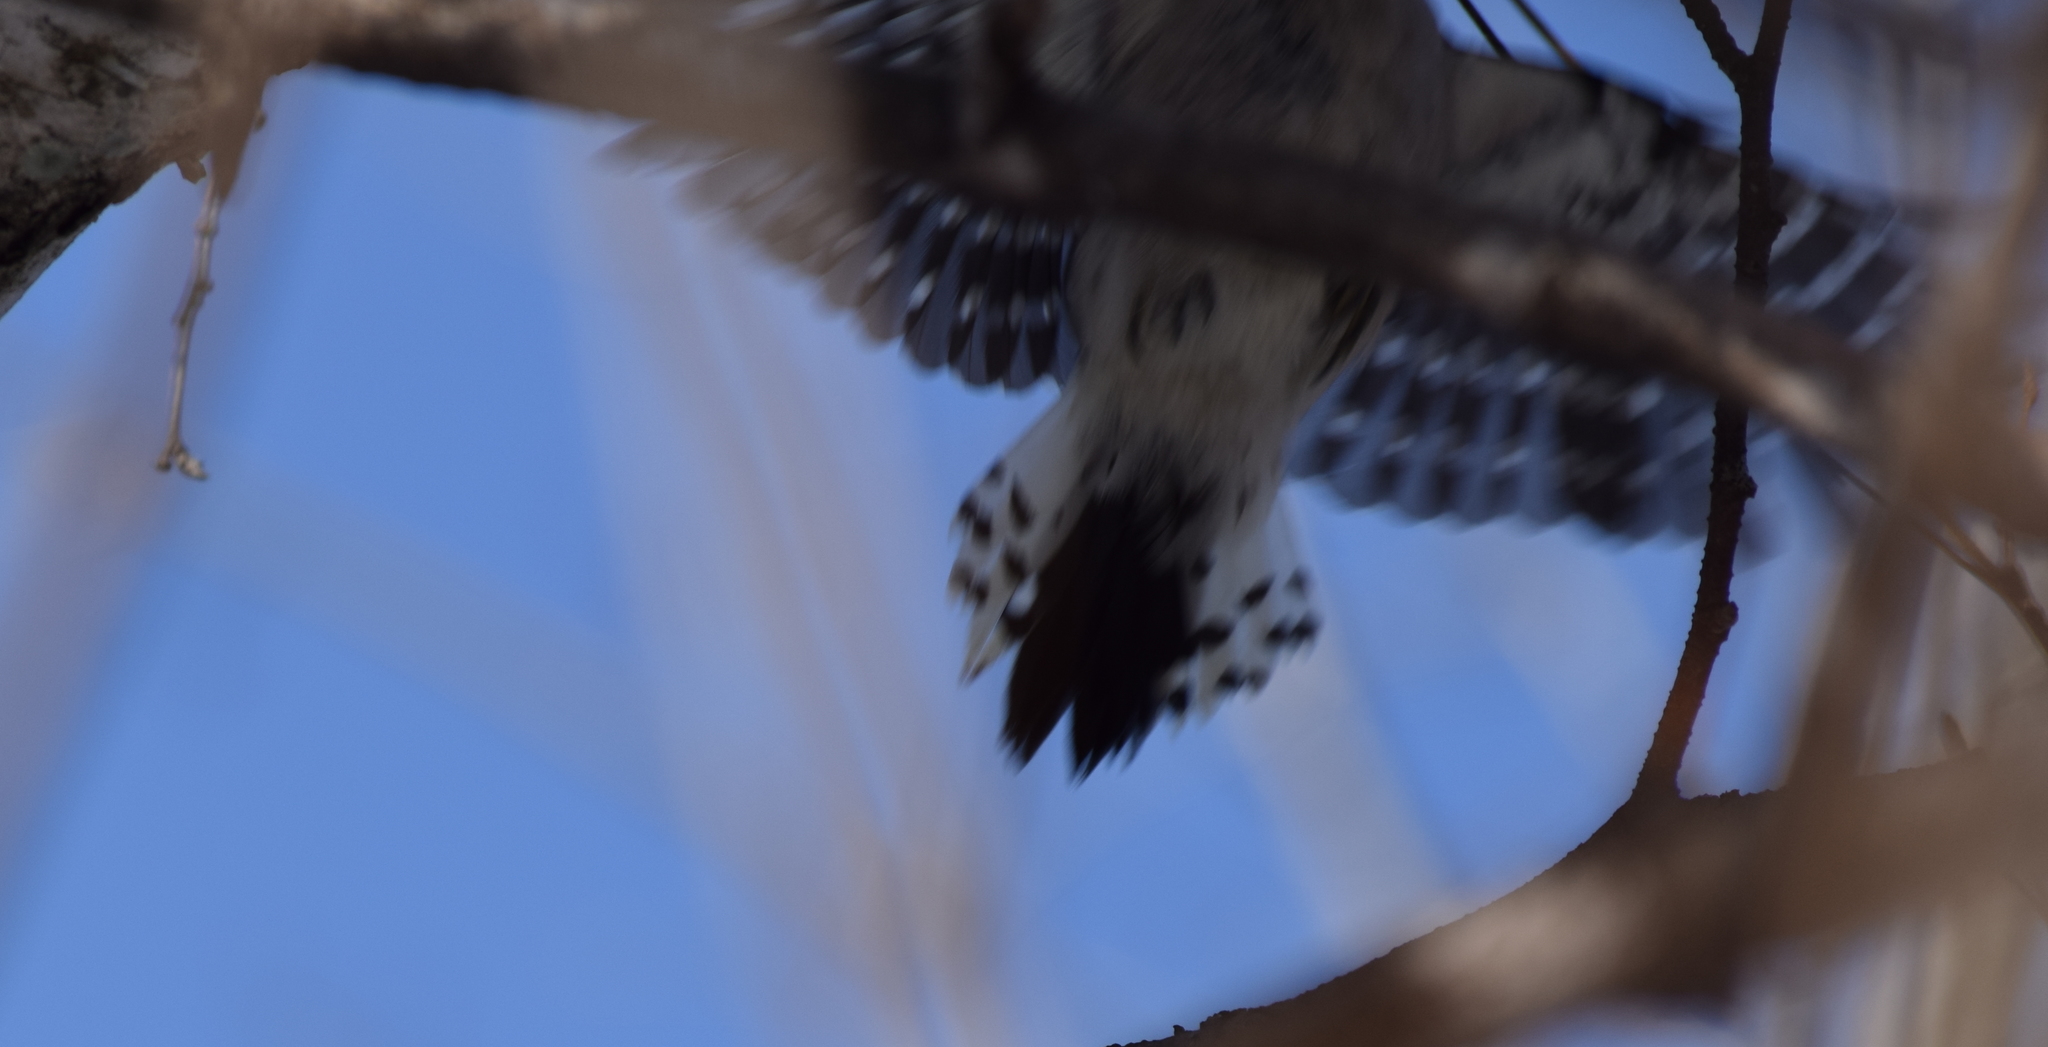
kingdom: Animalia
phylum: Chordata
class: Aves
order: Piciformes
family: Picidae
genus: Dryobates
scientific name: Dryobates pubescens
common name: Downy woodpecker
